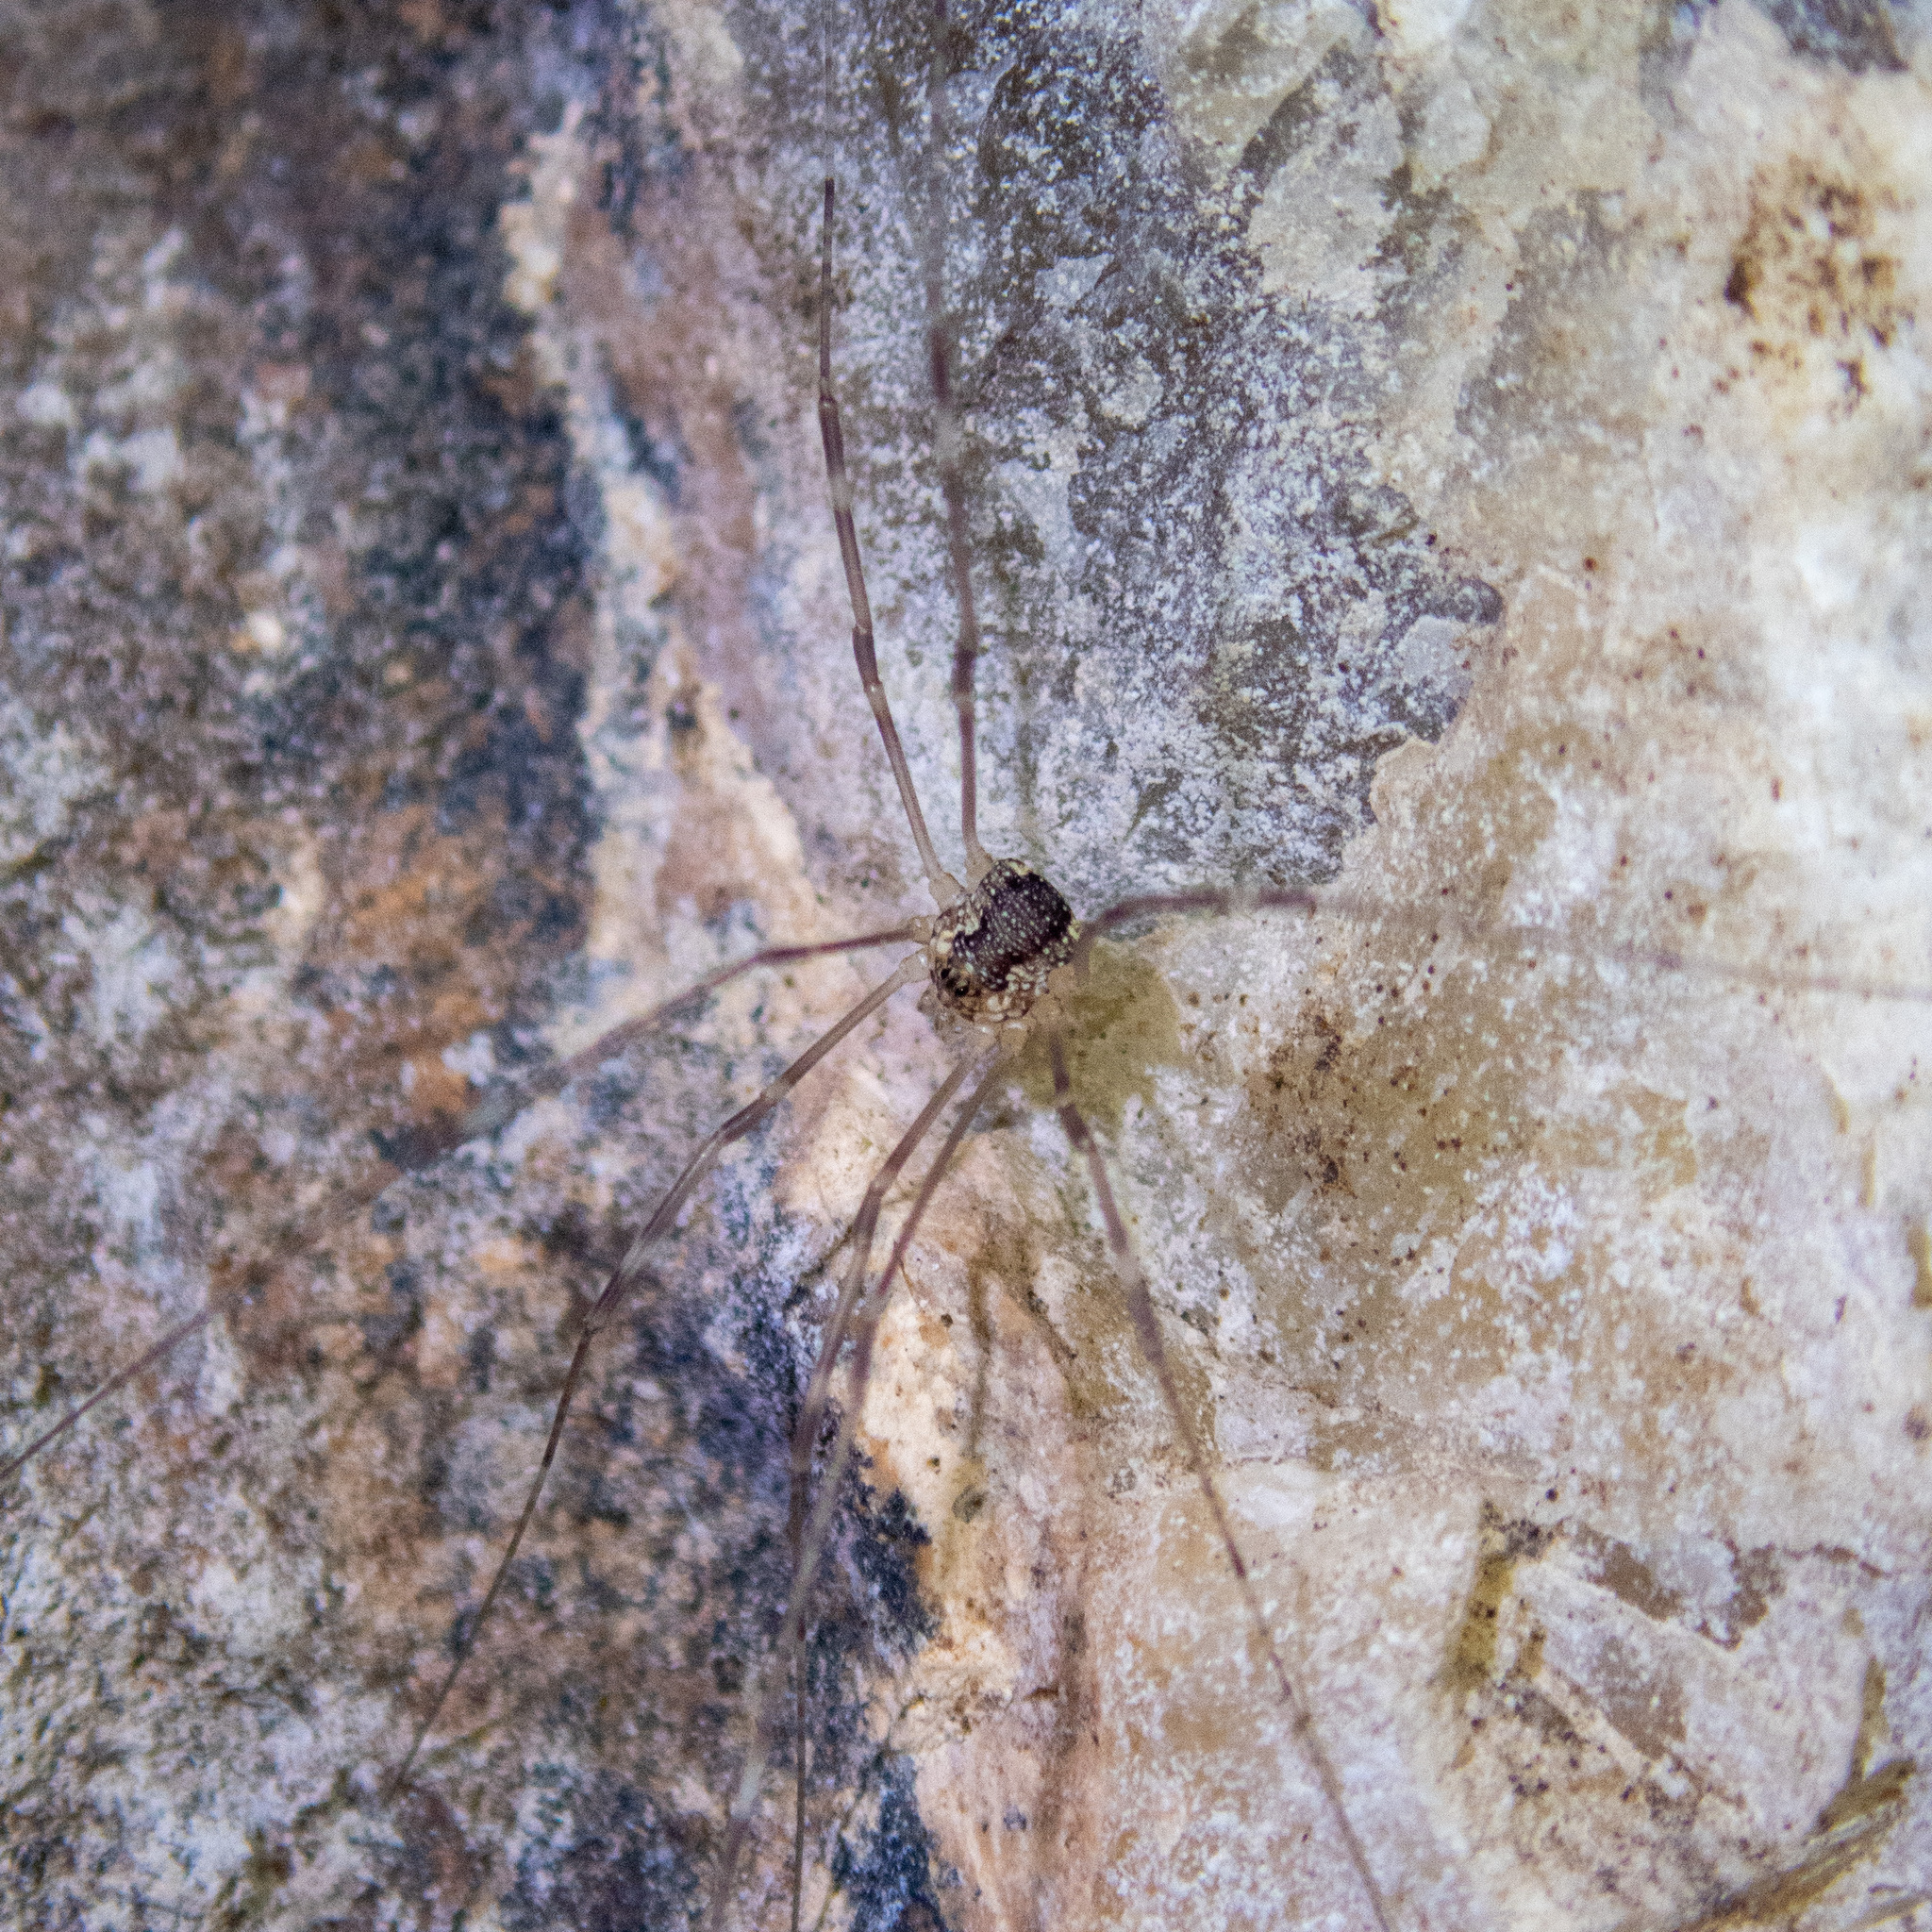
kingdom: Animalia
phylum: Arthropoda
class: Arachnida
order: Opiliones
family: Sclerosomatidae
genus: Leiobunum
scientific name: Leiobunum townsendi
